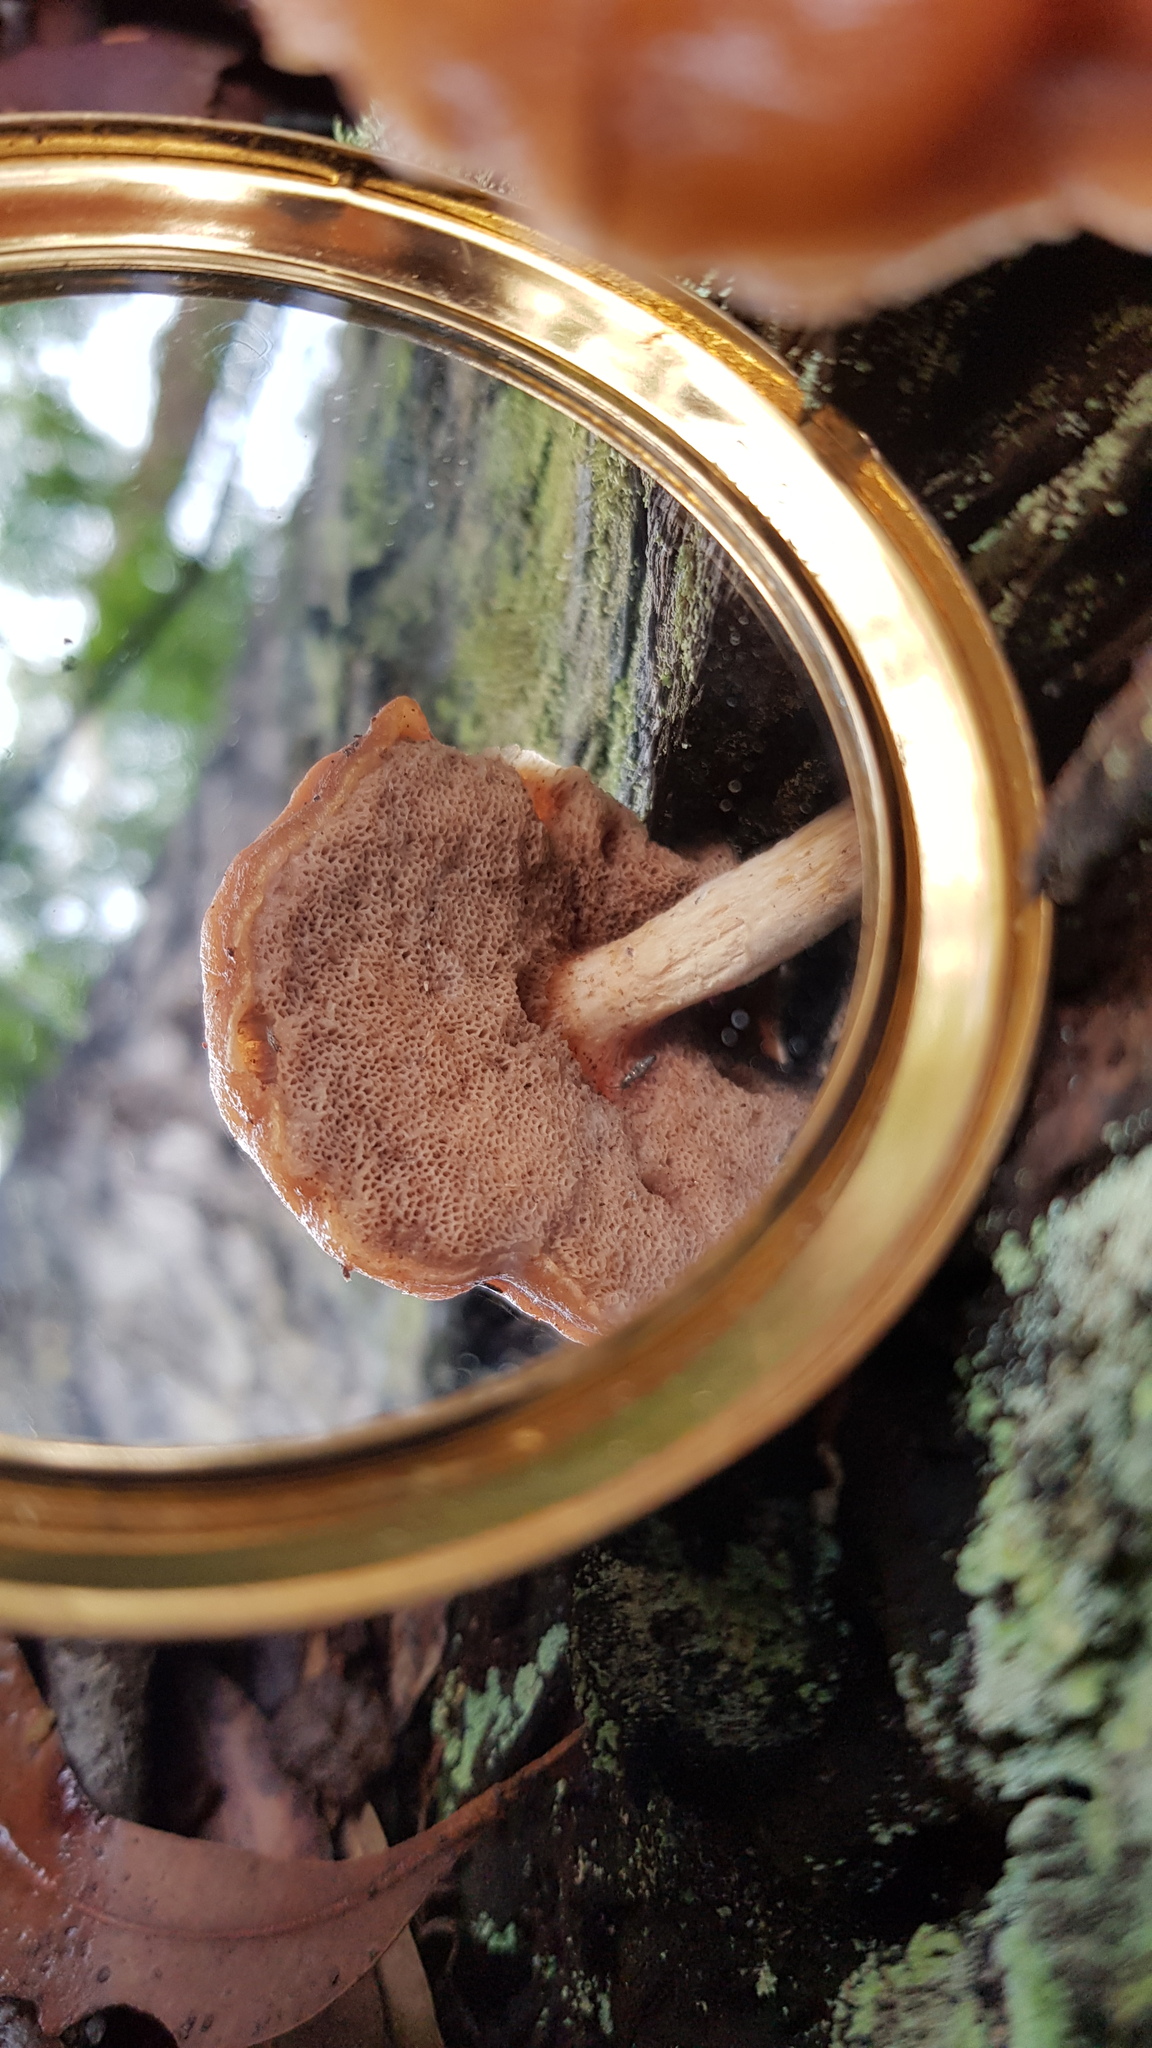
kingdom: Fungi
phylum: Basidiomycota
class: Agaricomycetes
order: Boletales
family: Boletaceae
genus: Fistulinella
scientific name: Fistulinella mollis
